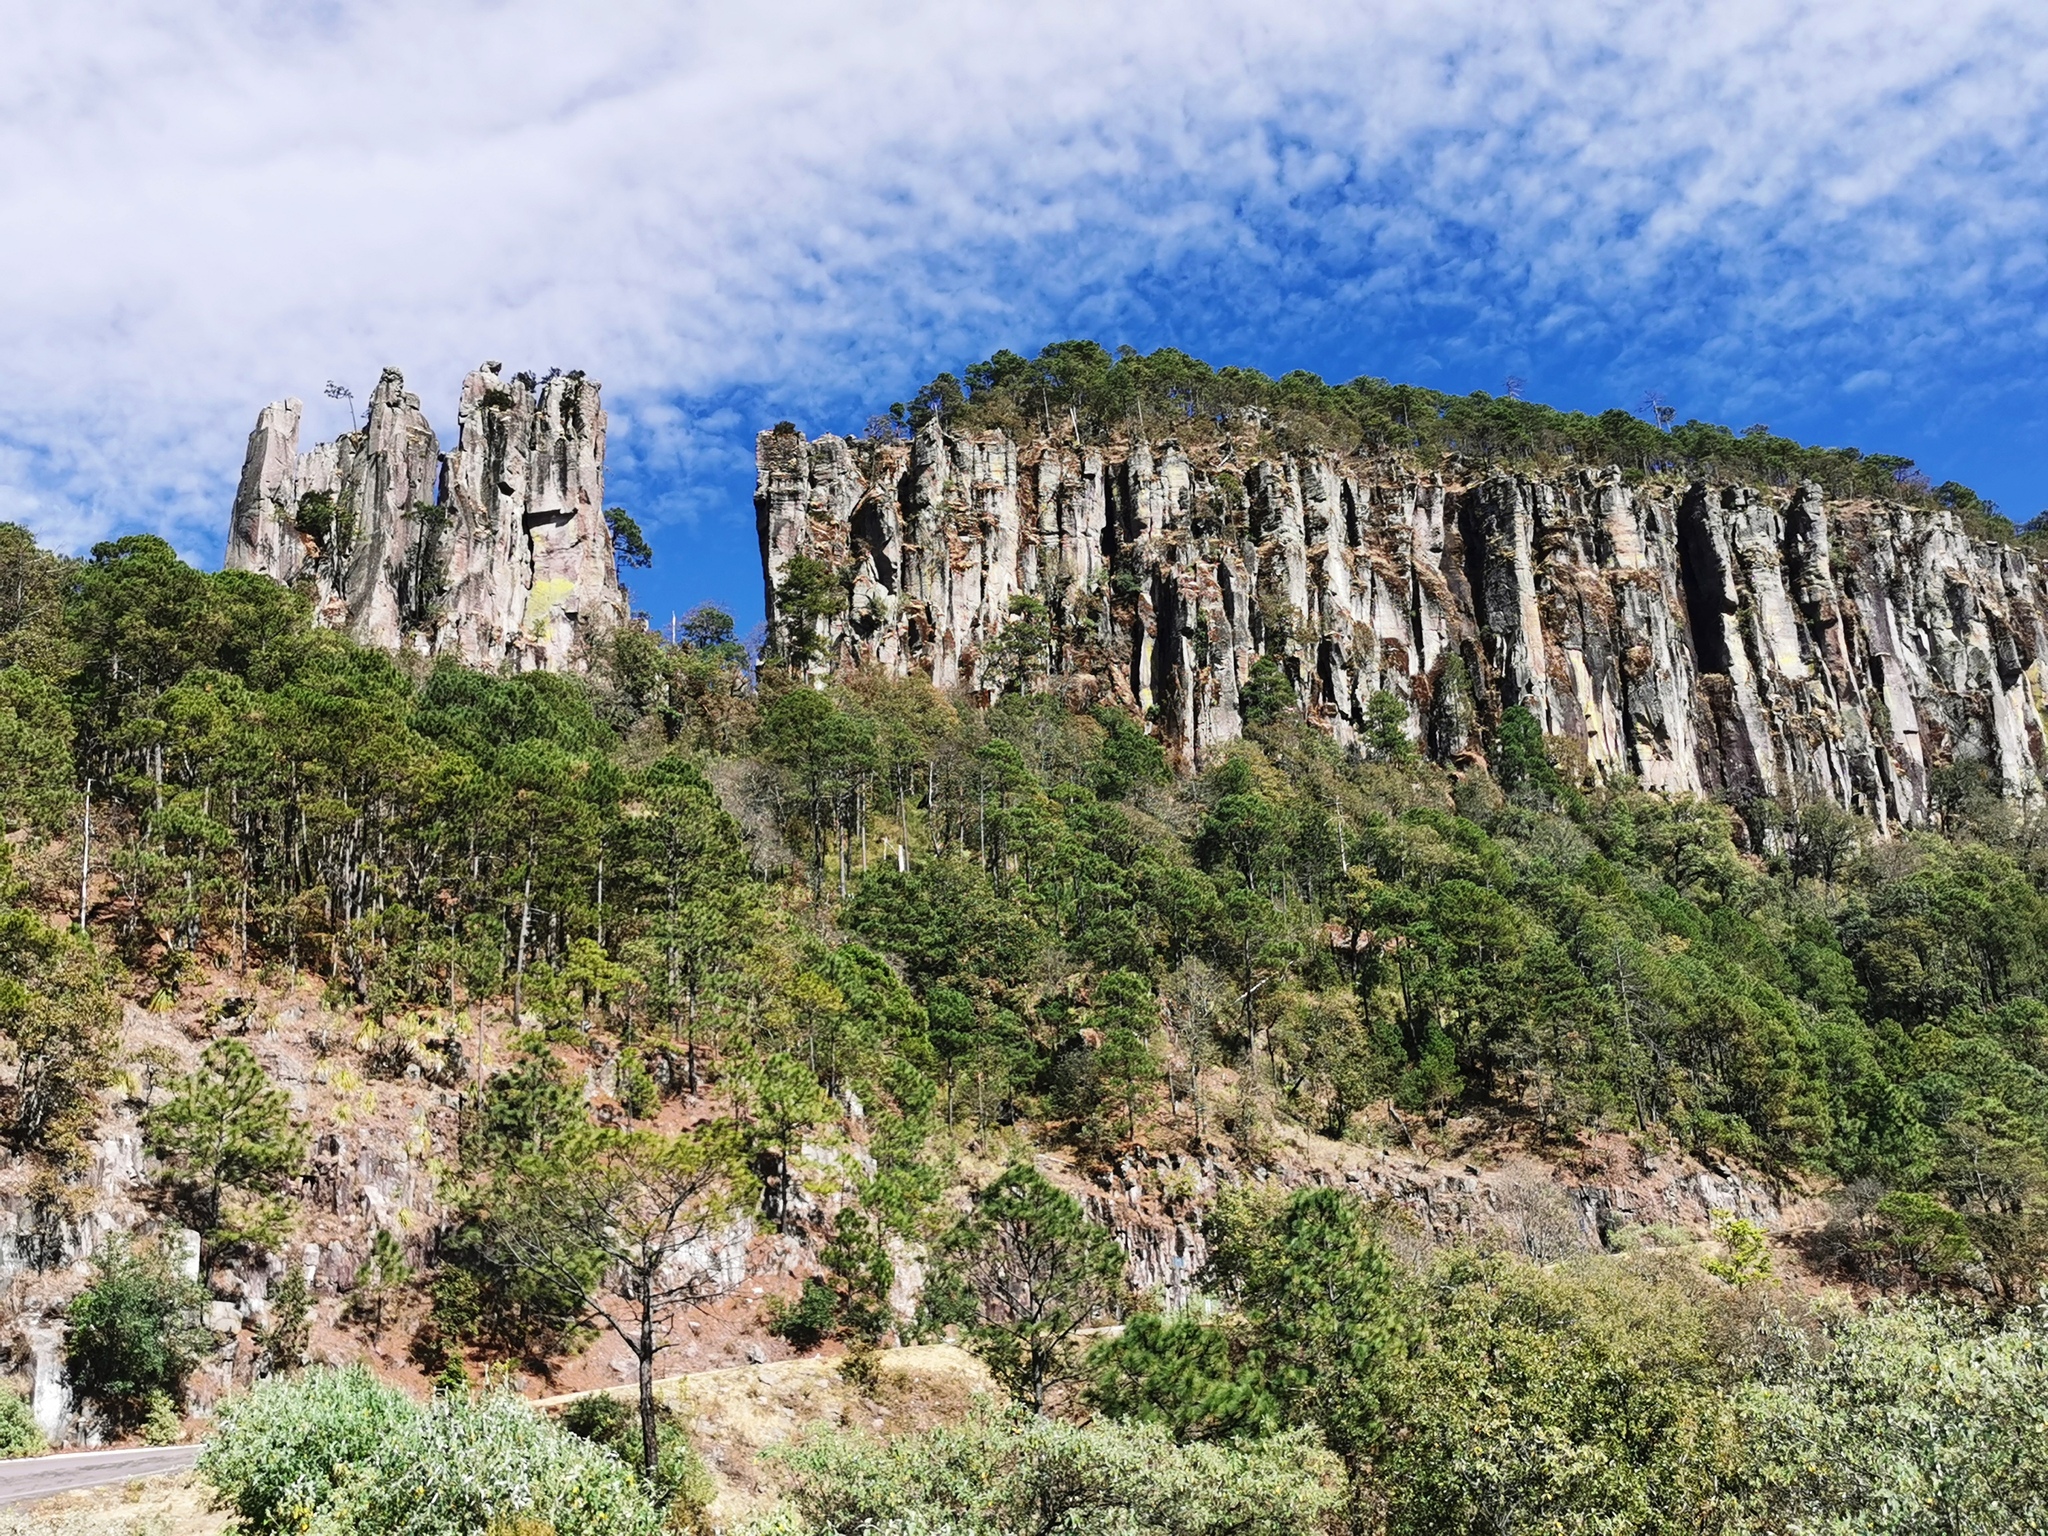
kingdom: Plantae
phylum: Tracheophyta
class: Pinopsida
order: Pinales
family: Pinaceae
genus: Pinus
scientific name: Pinus devoniana
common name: Michoacan pine
